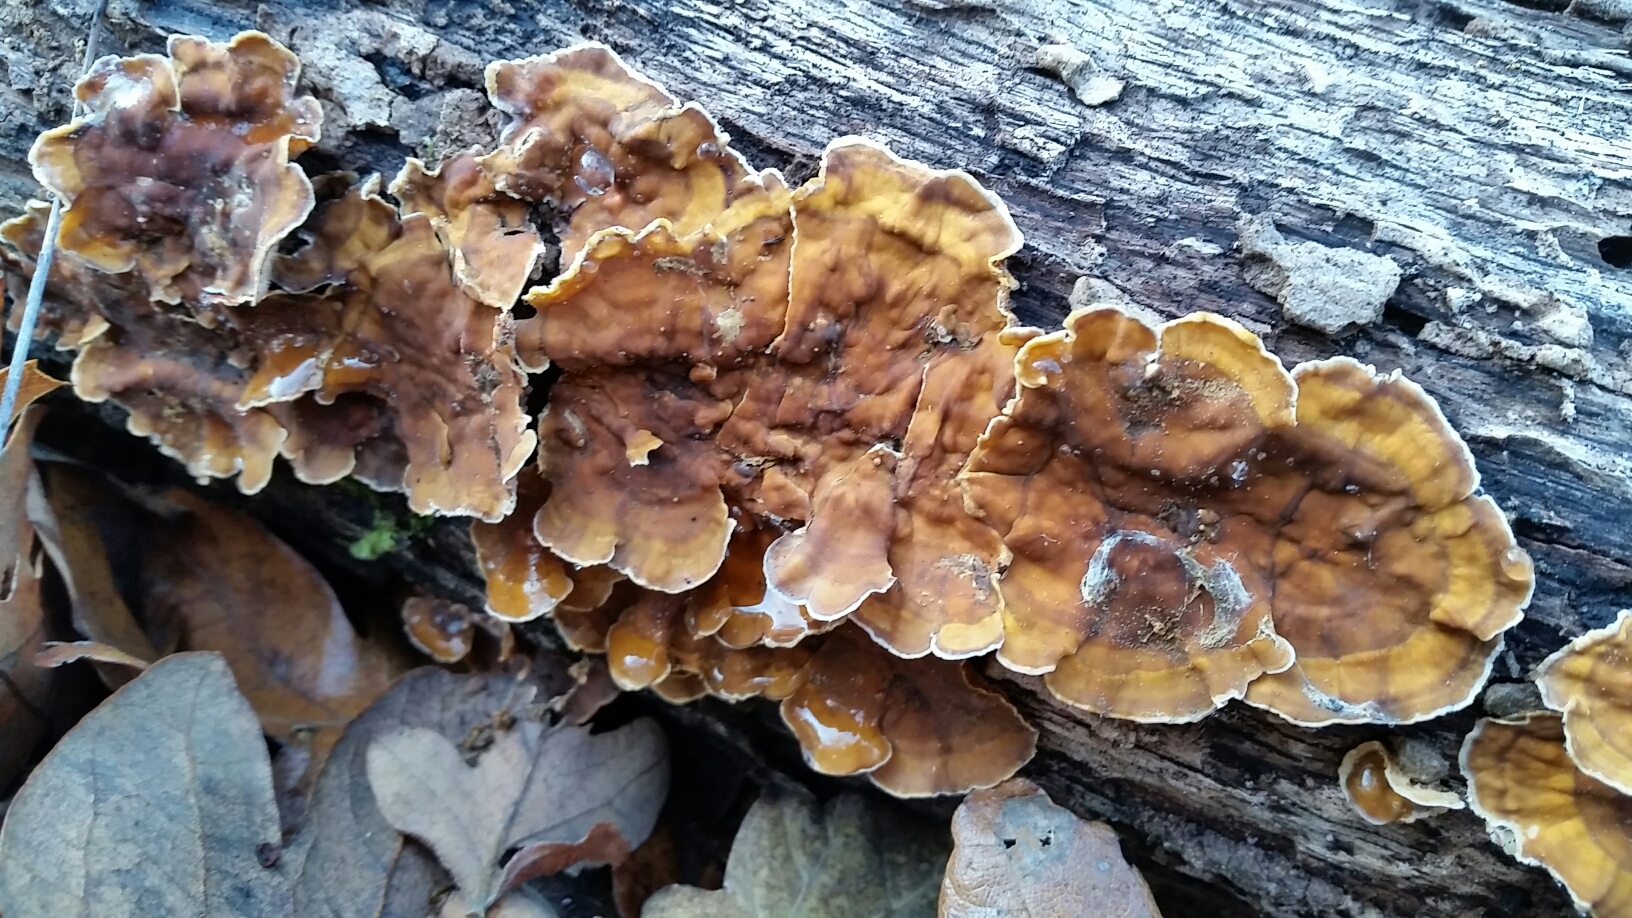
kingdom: Fungi
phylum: Basidiomycota
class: Agaricomycetes
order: Russulales
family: Stereaceae
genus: Stereum
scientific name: Stereum hirsutum
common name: Hairy curtain crust
